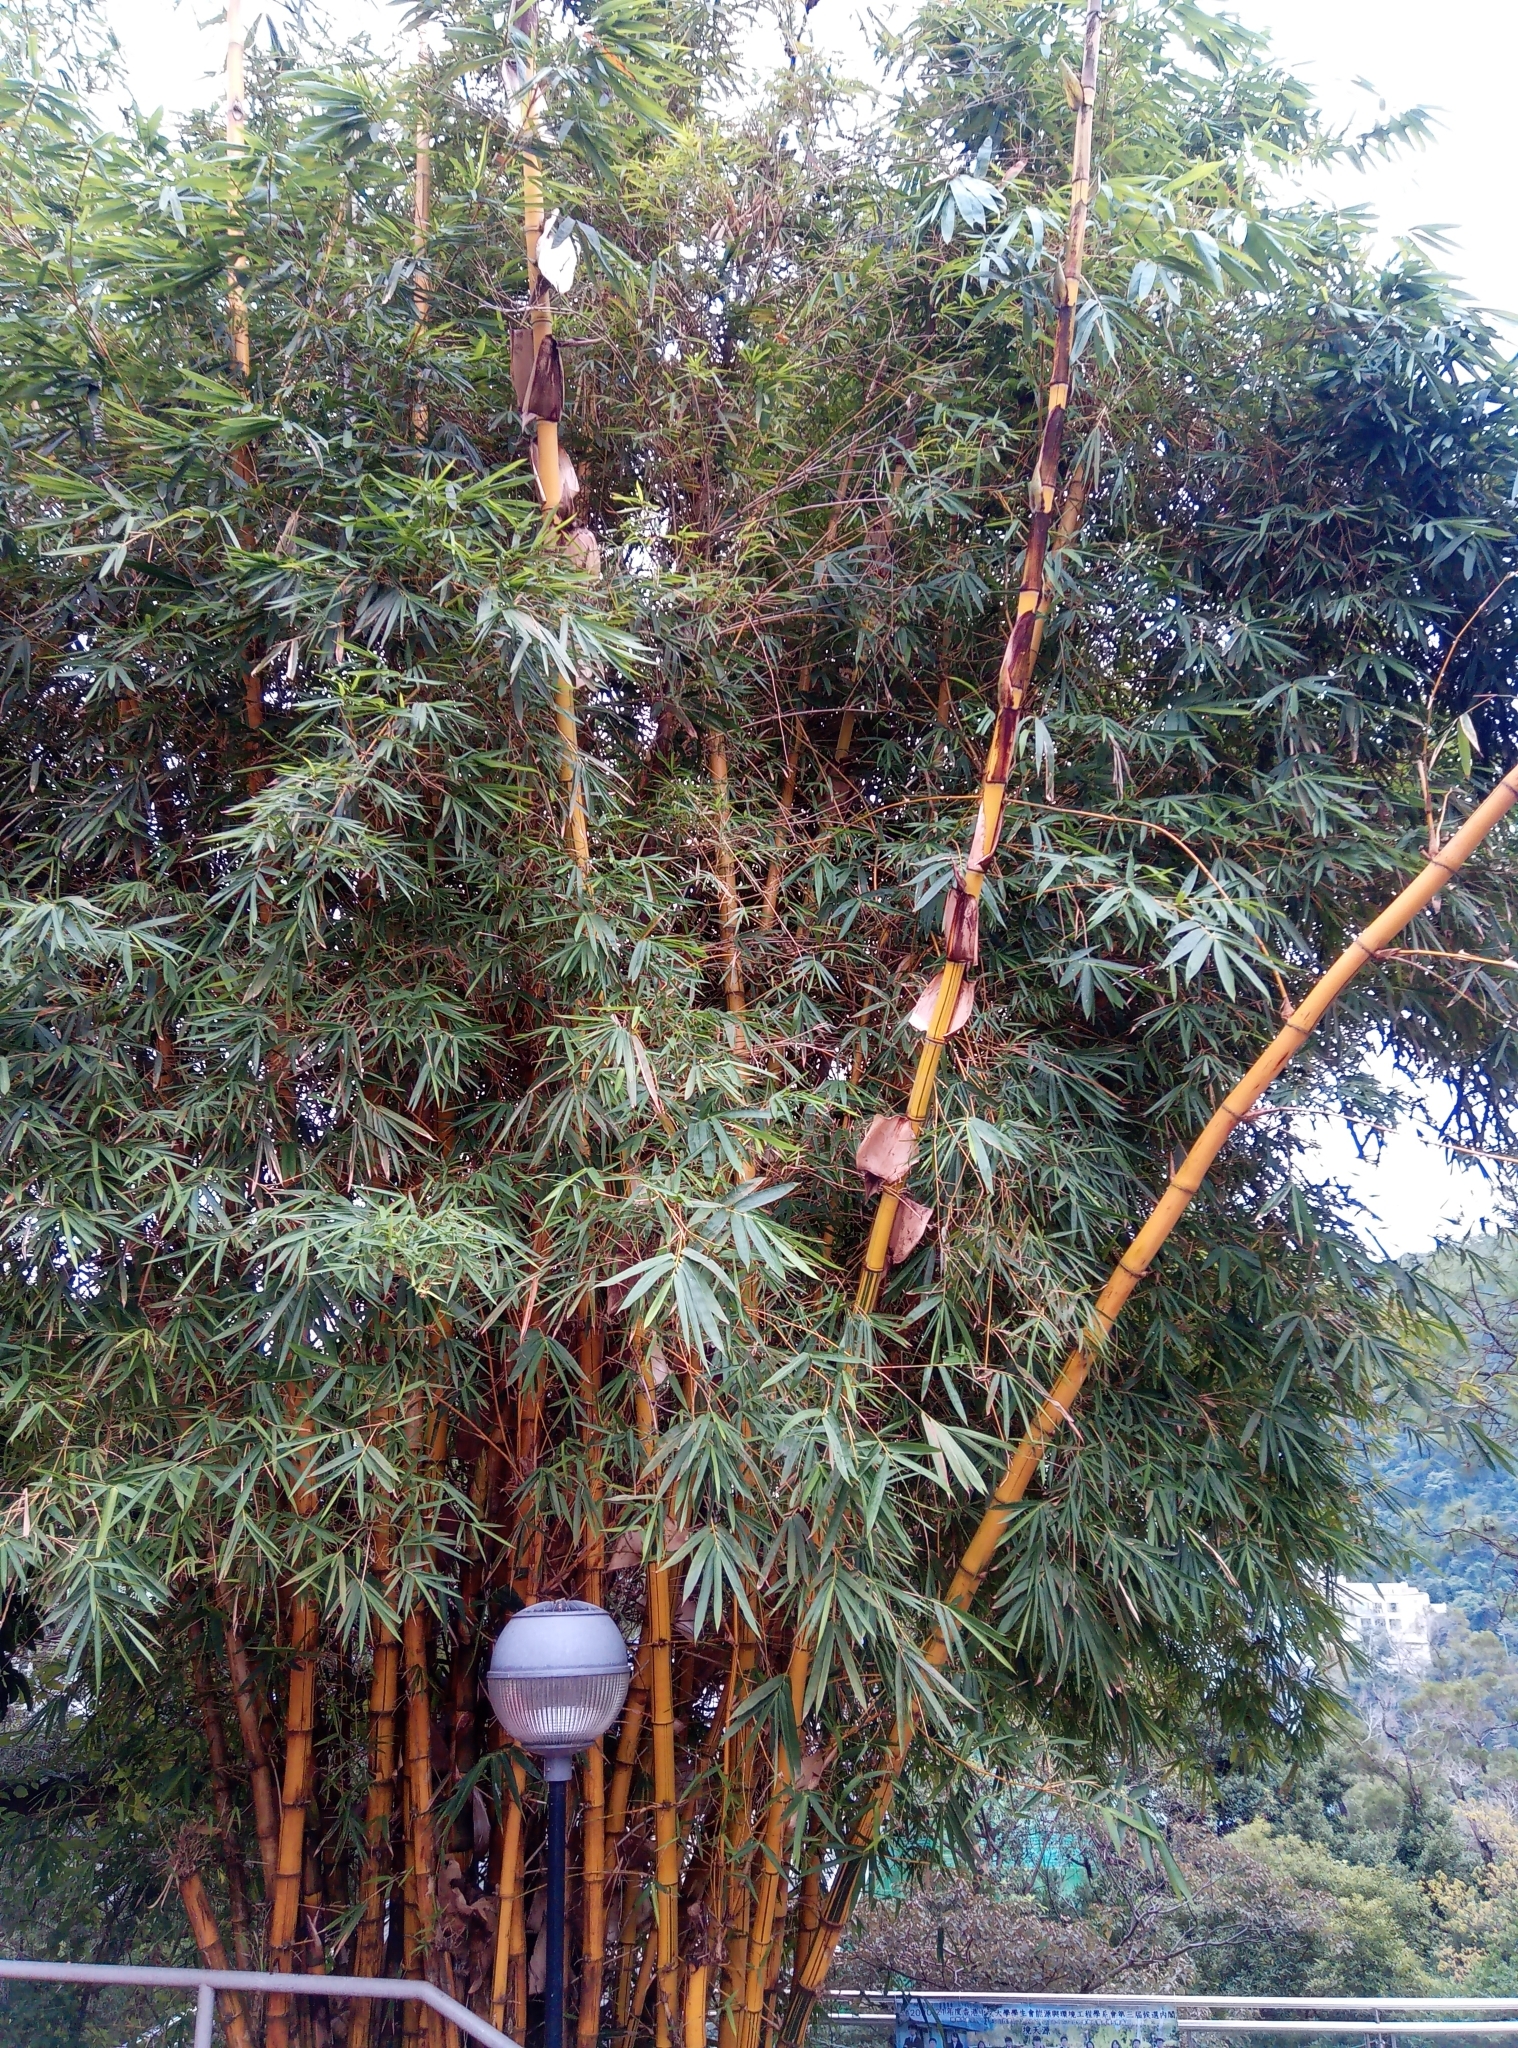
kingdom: Plantae
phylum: Tracheophyta
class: Liliopsida
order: Poales
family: Poaceae
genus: Bambusa
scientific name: Bambusa vulgaris
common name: Common bamboo
